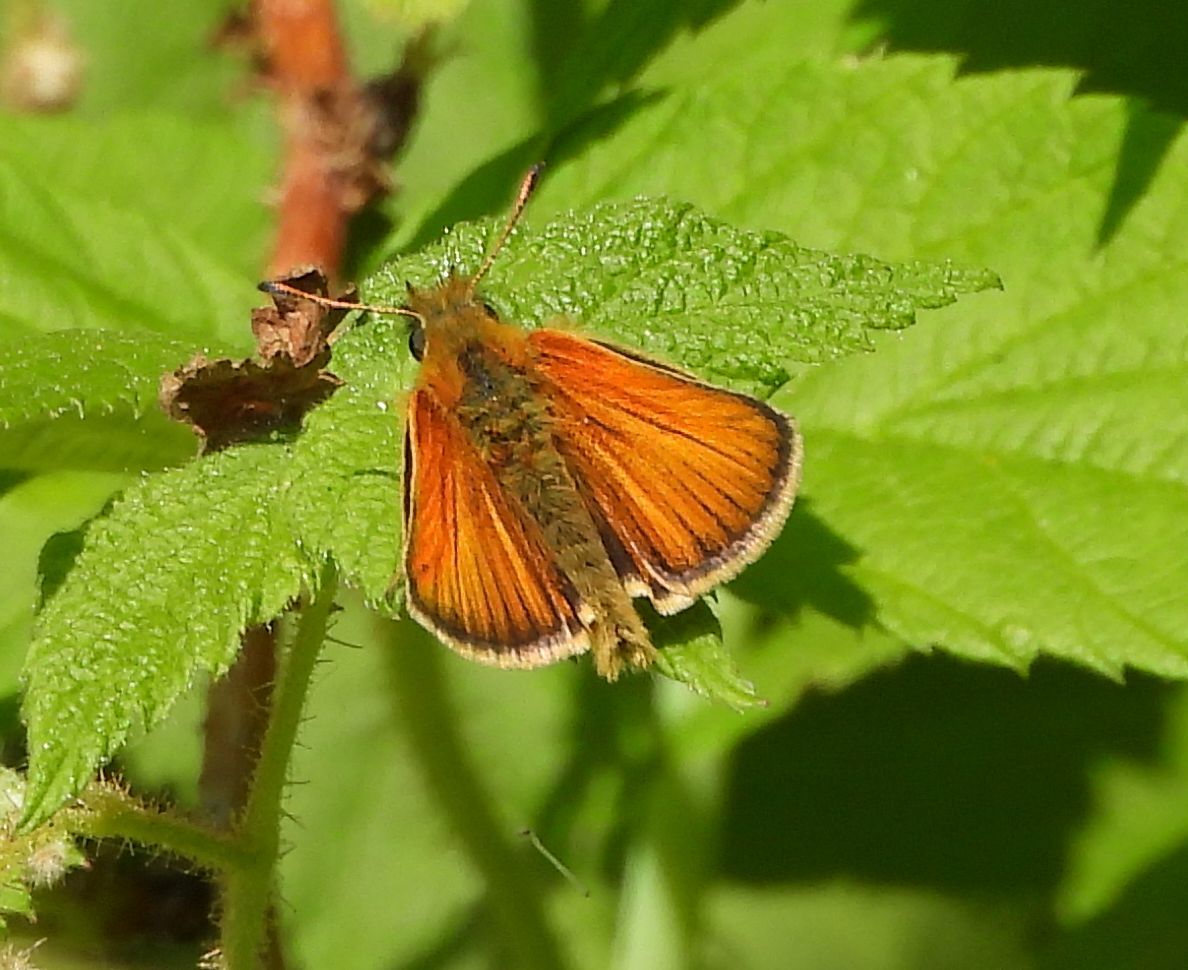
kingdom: Animalia
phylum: Arthropoda
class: Insecta
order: Lepidoptera
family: Hesperiidae
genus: Thymelicus
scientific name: Thymelicus lineola
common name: Essex skipper
